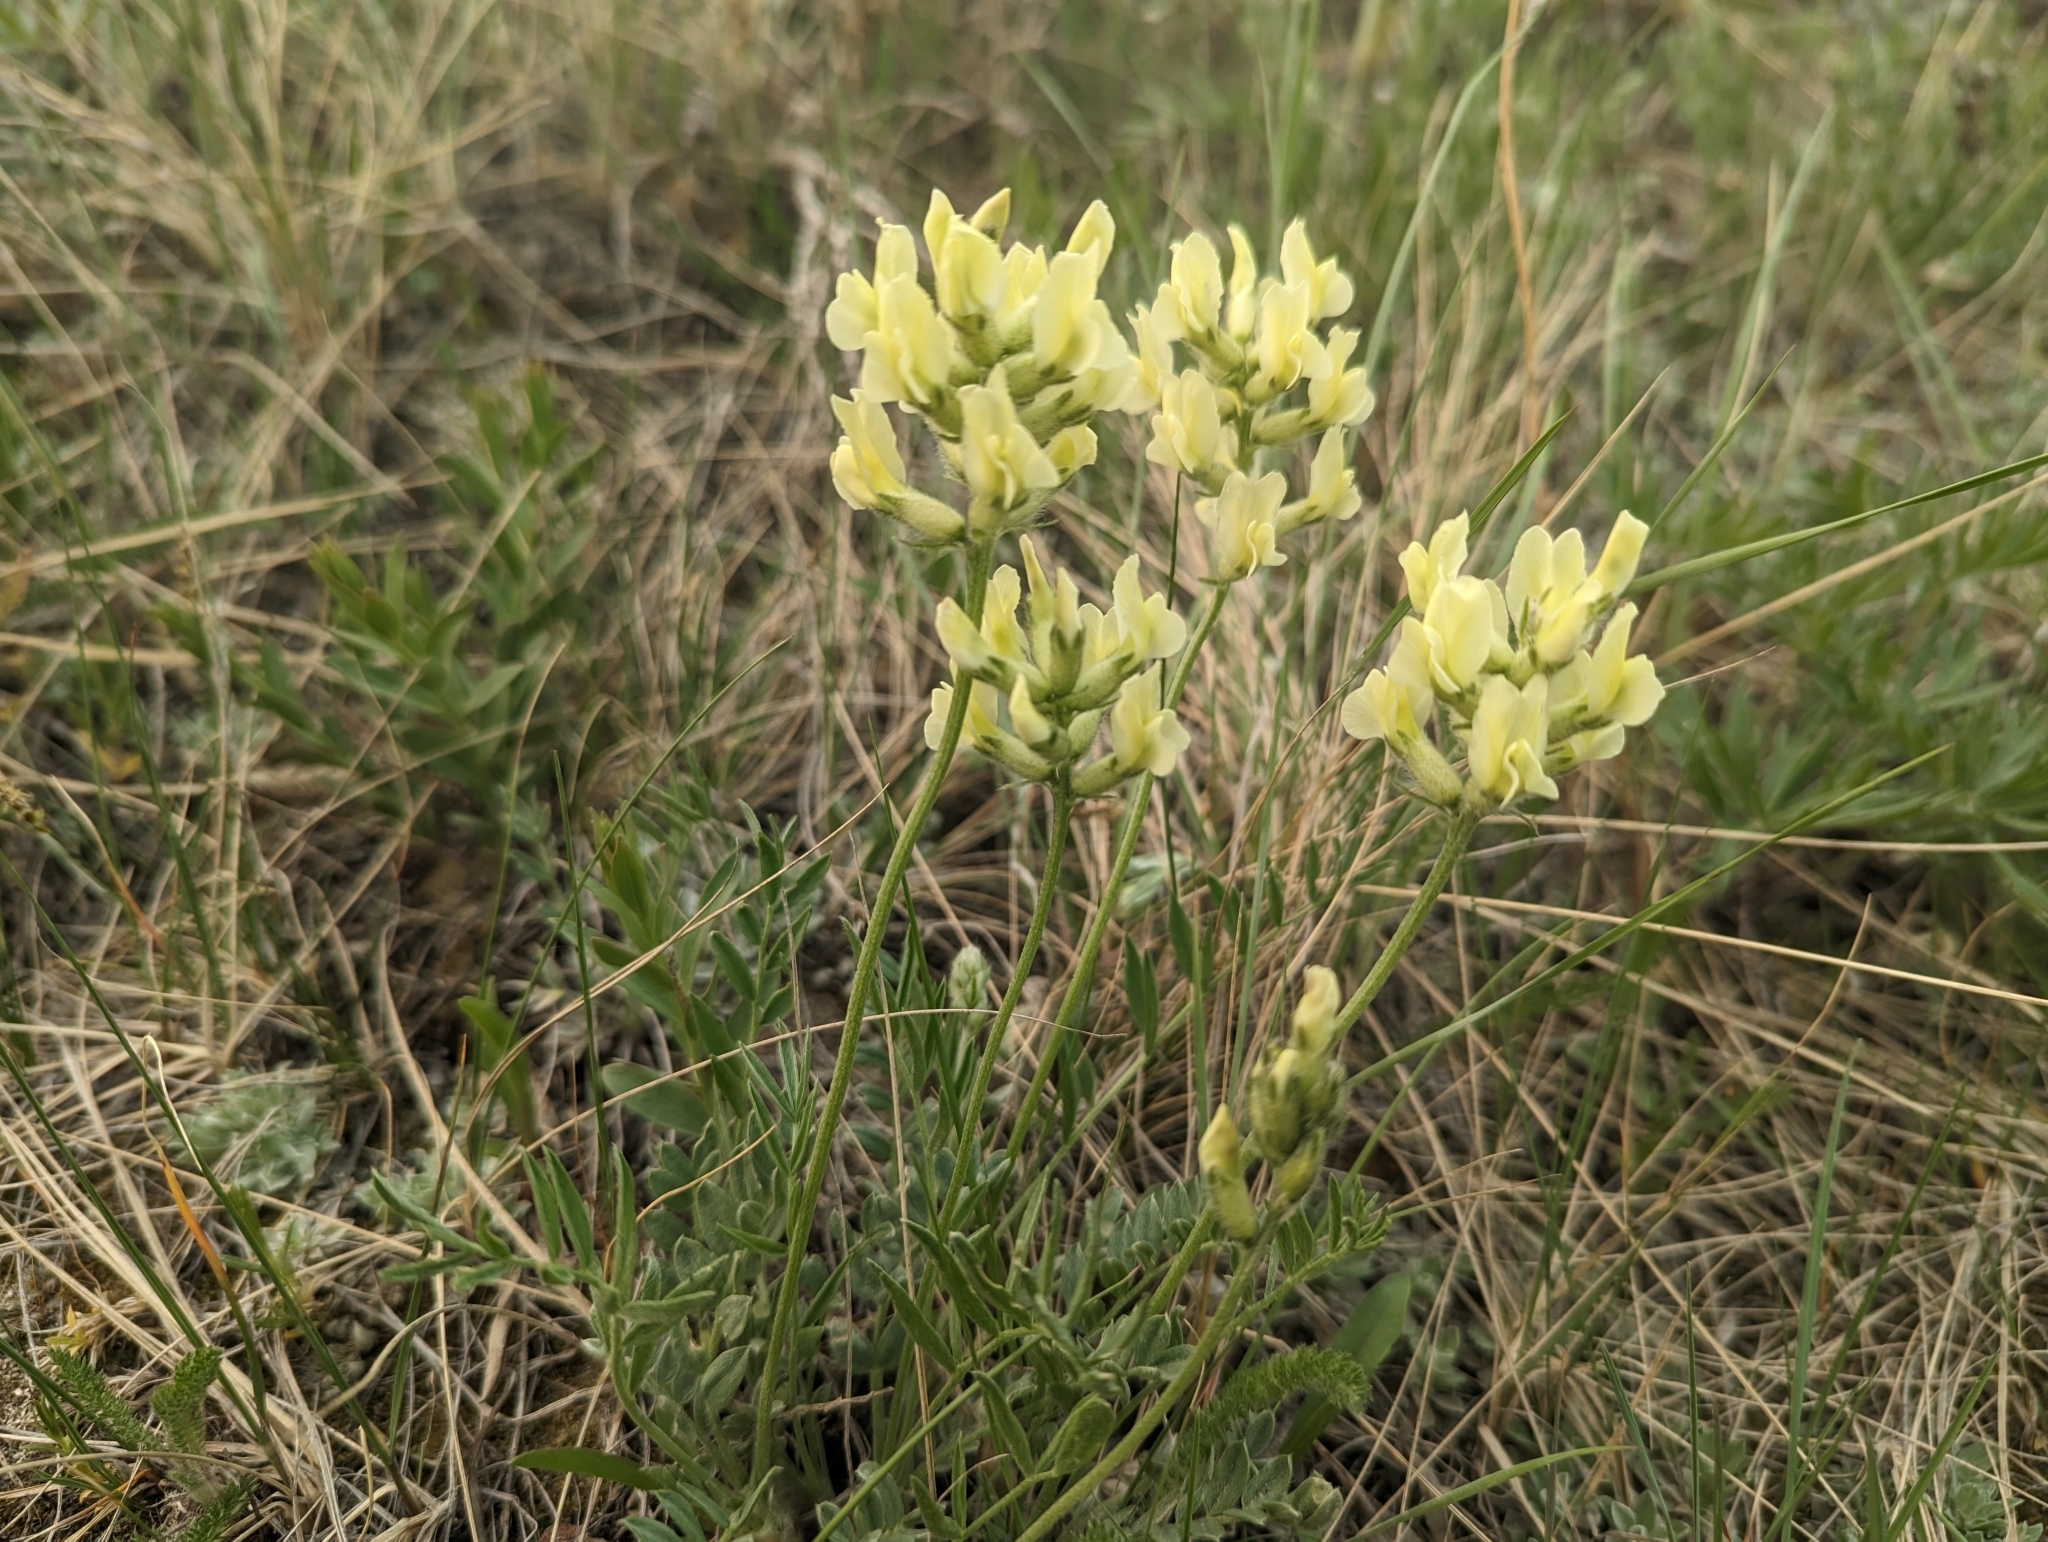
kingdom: Plantae
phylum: Tracheophyta
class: Magnoliopsida
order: Fabales
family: Fabaceae
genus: Oxytropis
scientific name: Oxytropis sericea
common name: Silky locoweed
